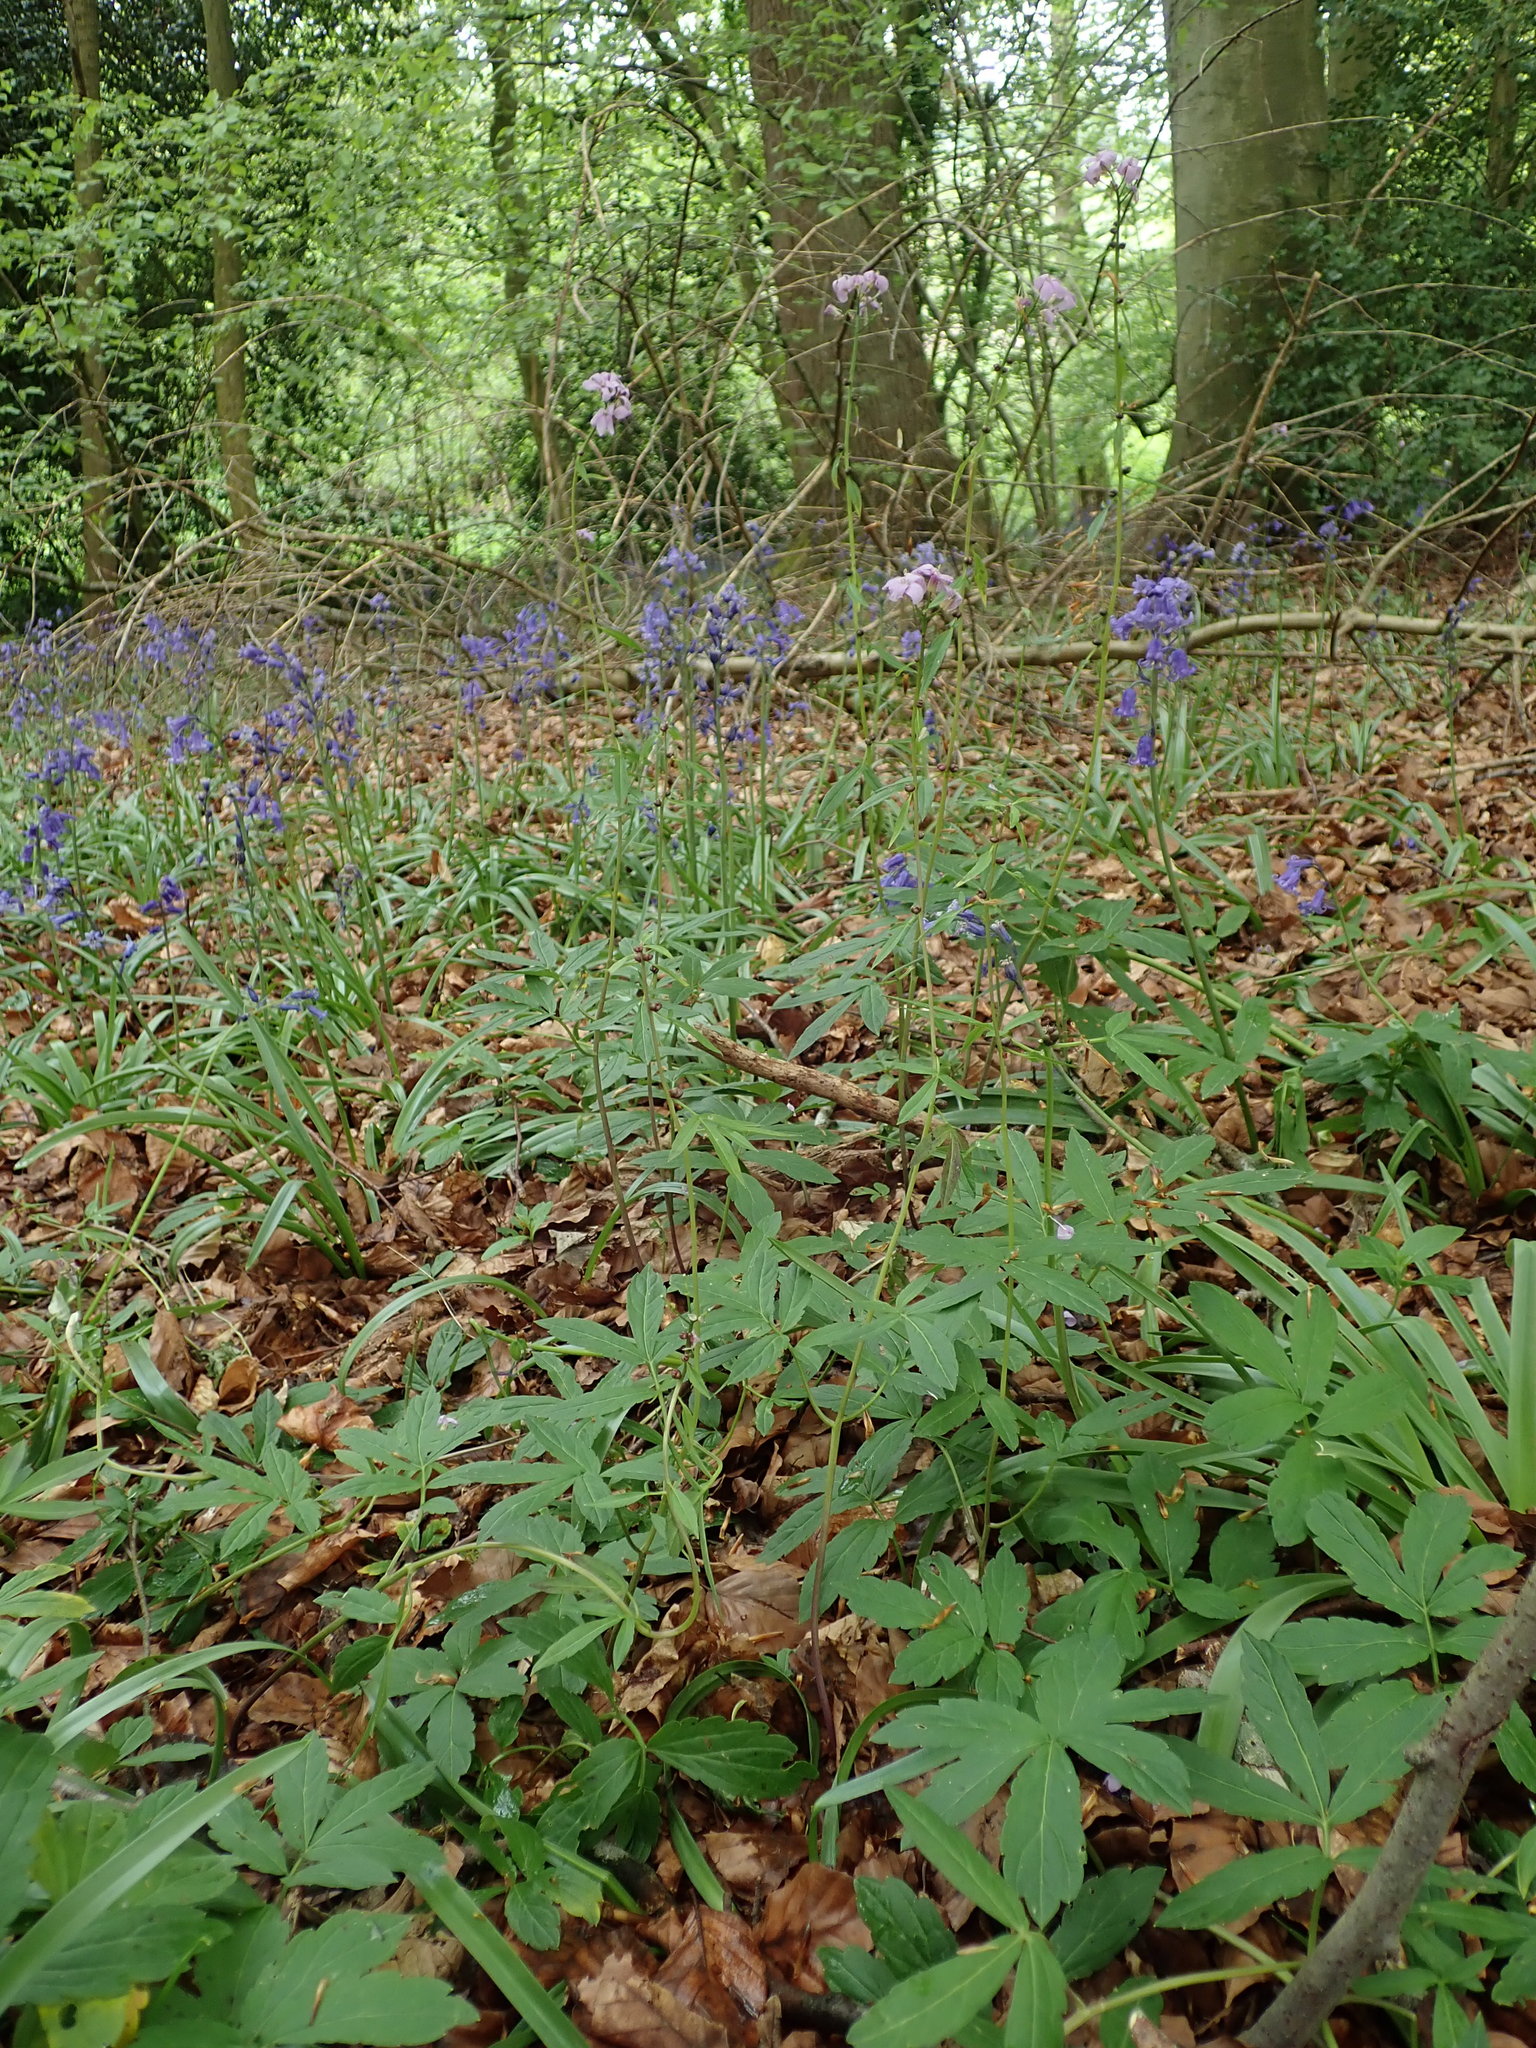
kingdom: Plantae
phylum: Tracheophyta
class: Magnoliopsida
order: Brassicales
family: Brassicaceae
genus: Cardamine
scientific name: Cardamine bulbifera
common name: Coralroot bittercress
